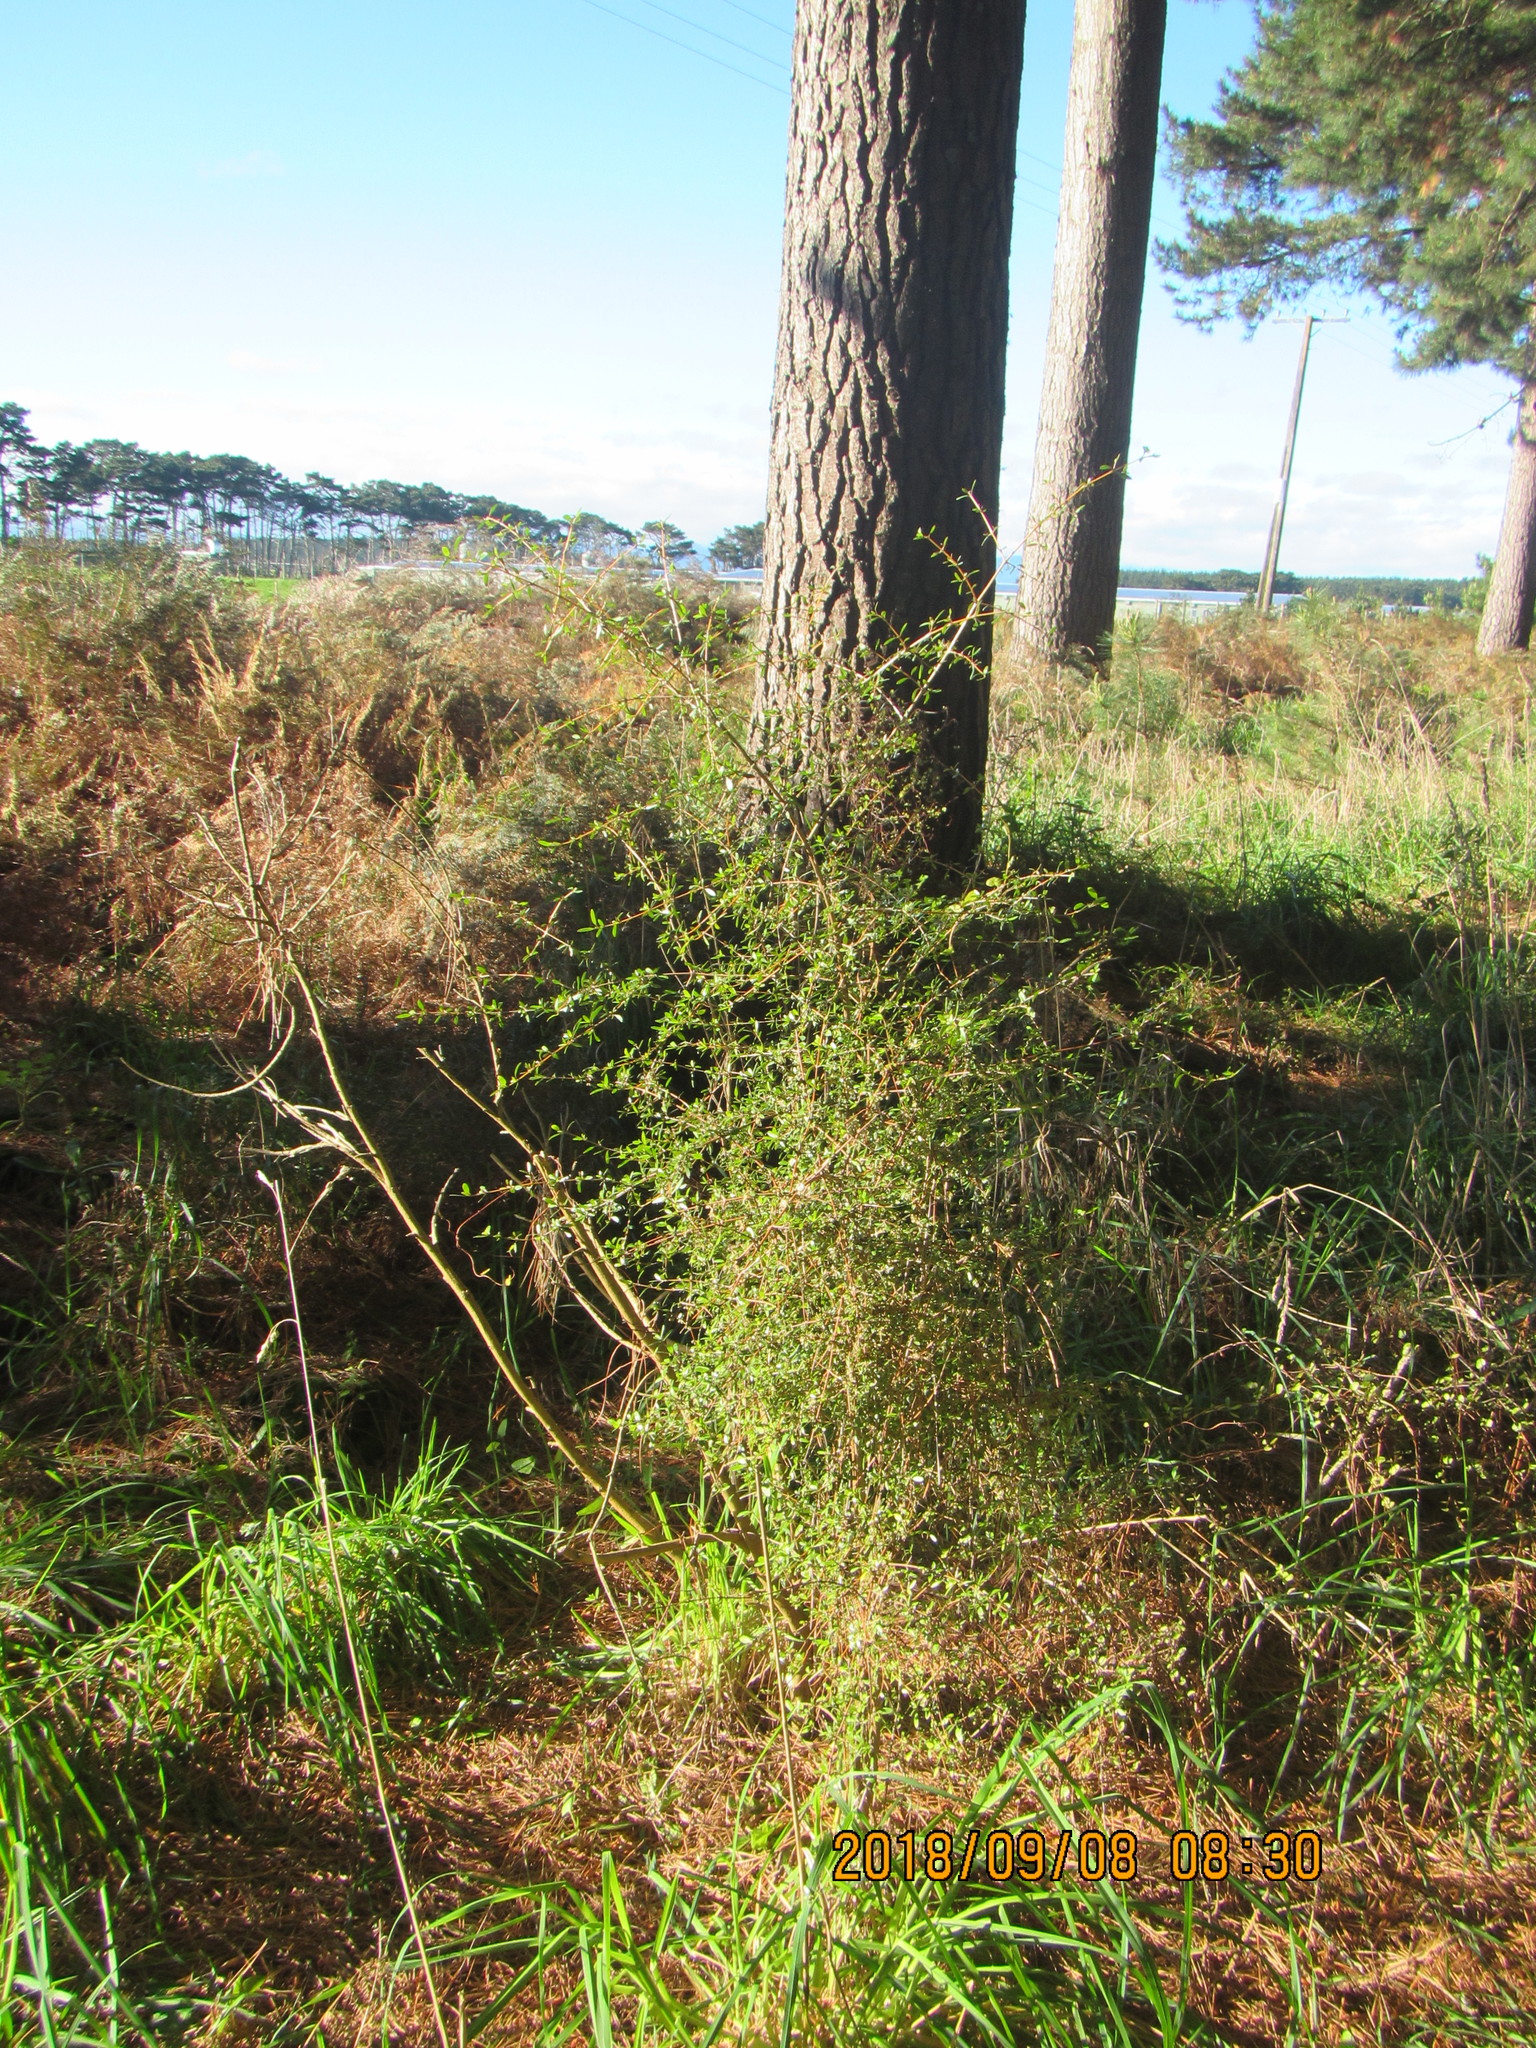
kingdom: Plantae
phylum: Tracheophyta
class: Magnoliopsida
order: Gentianales
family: Rubiaceae
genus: Coprosma
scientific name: Coprosma propinqua
